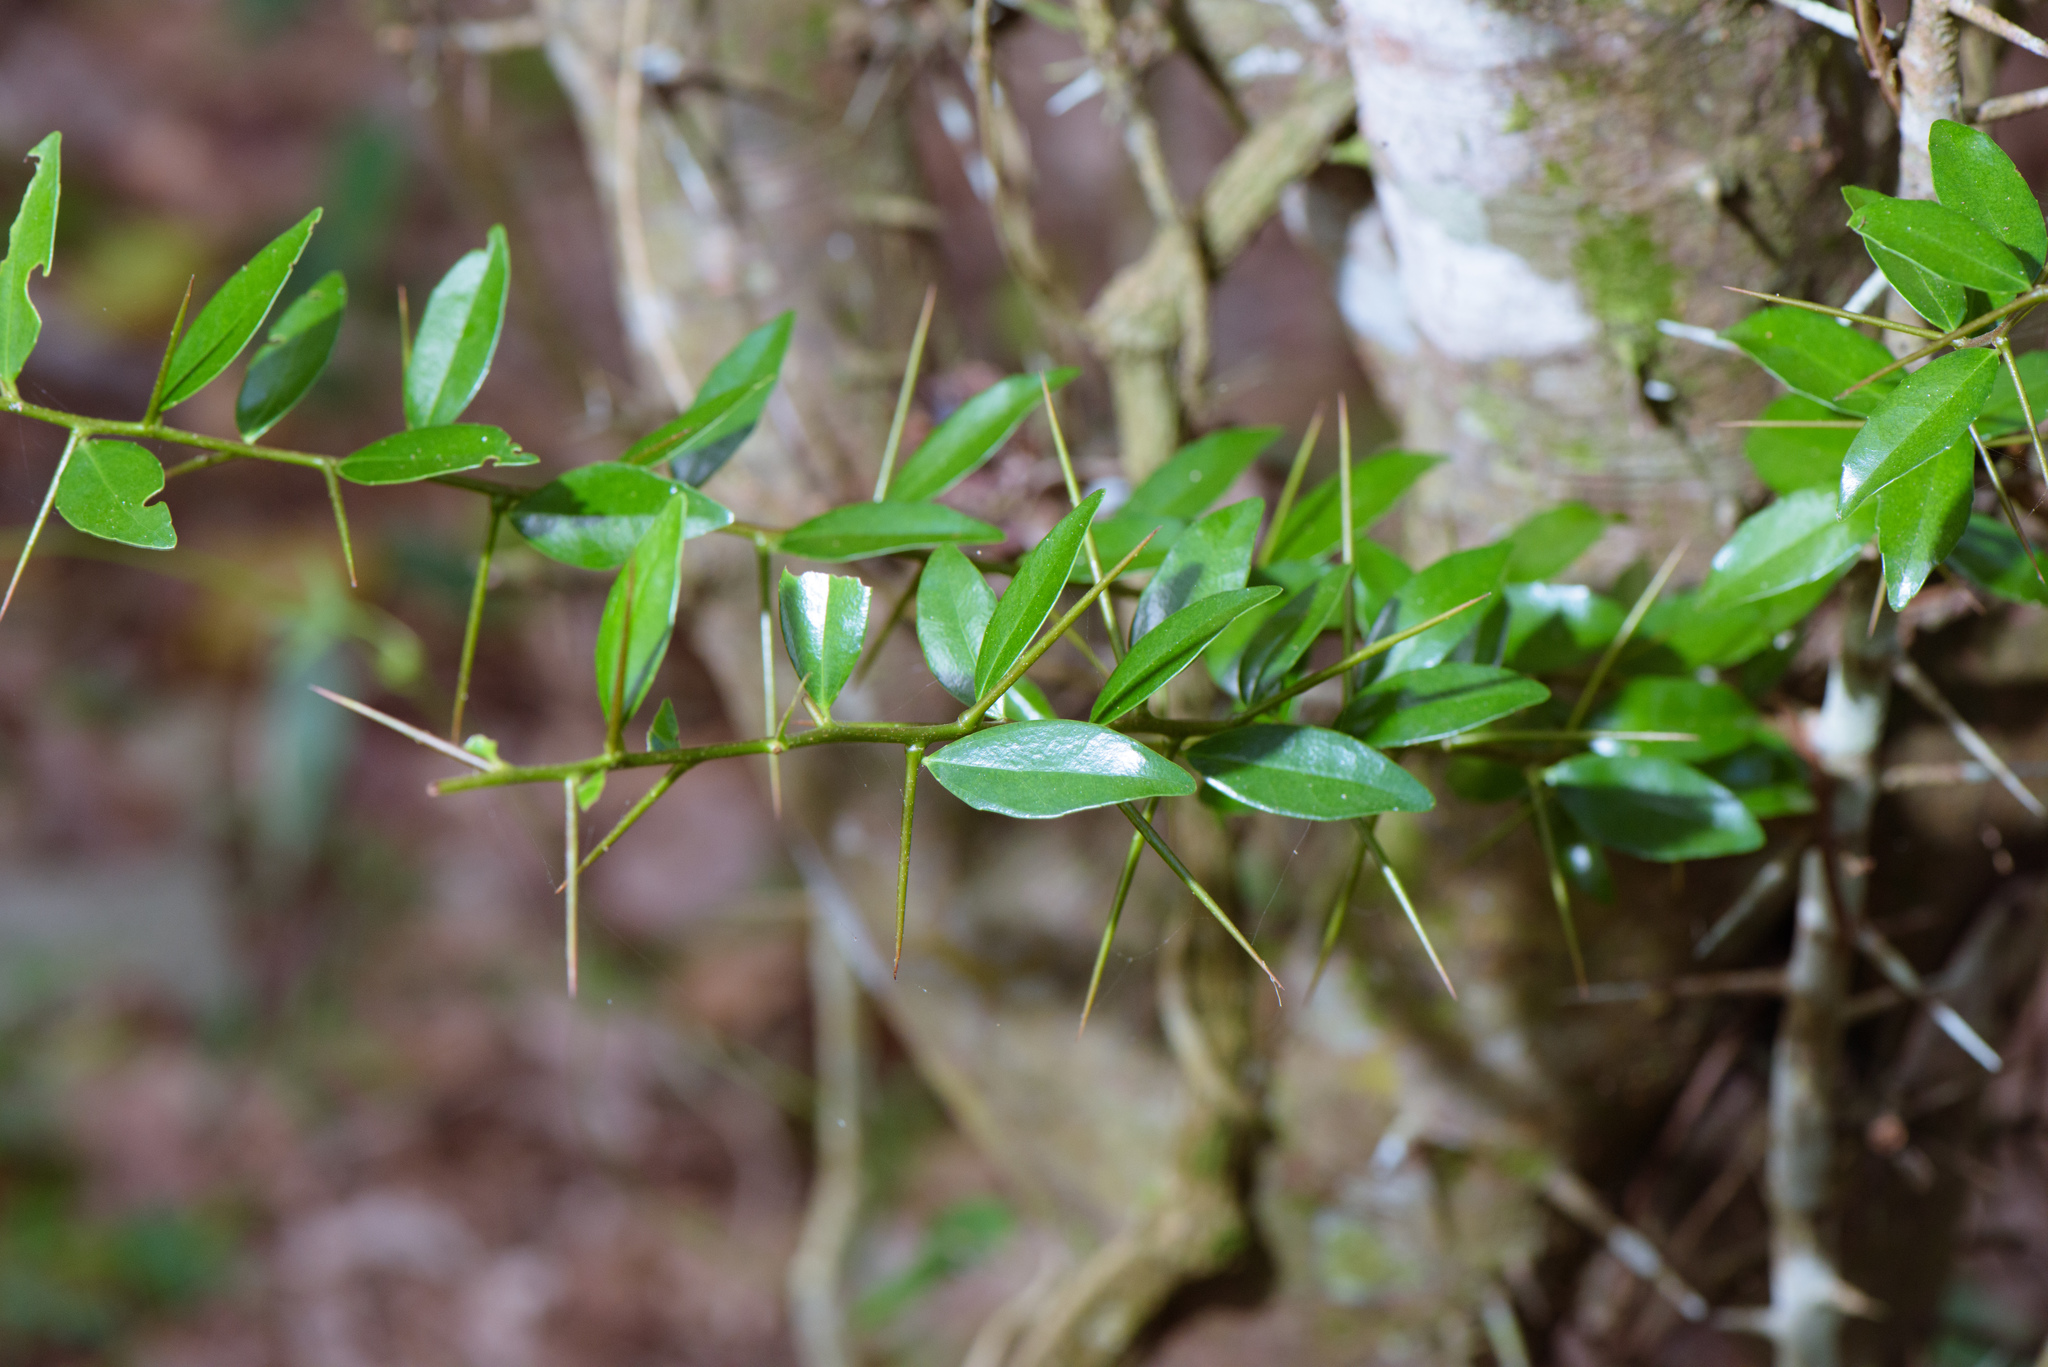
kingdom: Plantae
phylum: Tracheophyta
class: Magnoliopsida
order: Malpighiales
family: Salicaceae
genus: Scolopia
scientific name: Scolopia oldhamii
